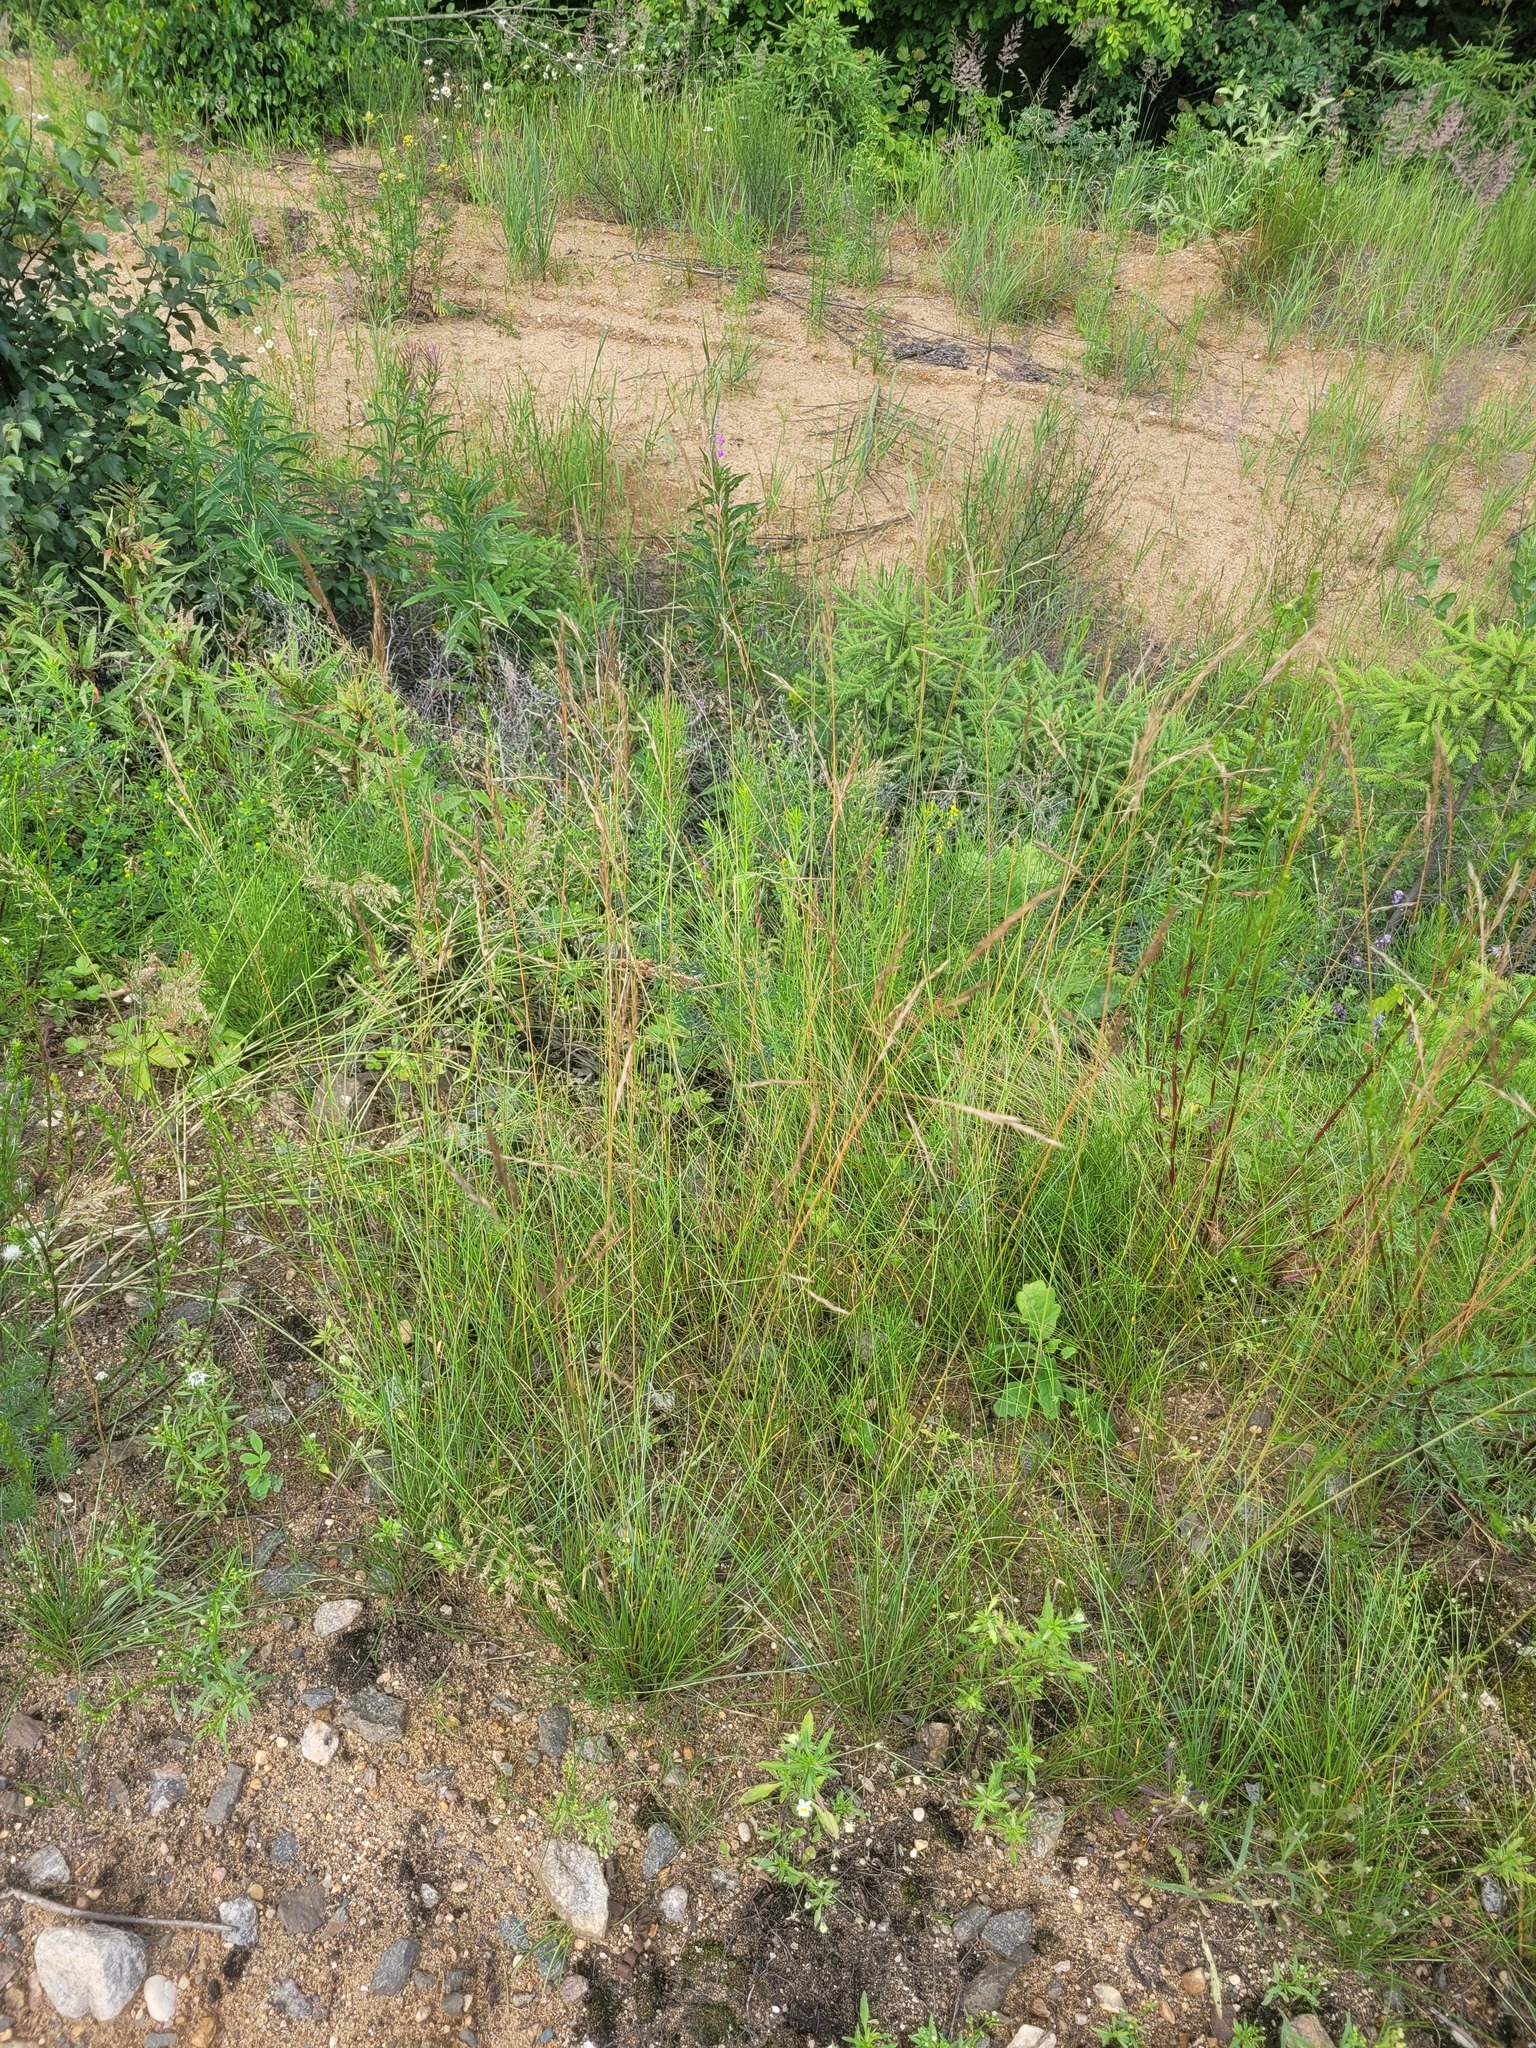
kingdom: Plantae
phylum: Tracheophyta
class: Liliopsida
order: Poales
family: Poaceae
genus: Festuca
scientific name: Festuca rubra
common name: Red fescue
